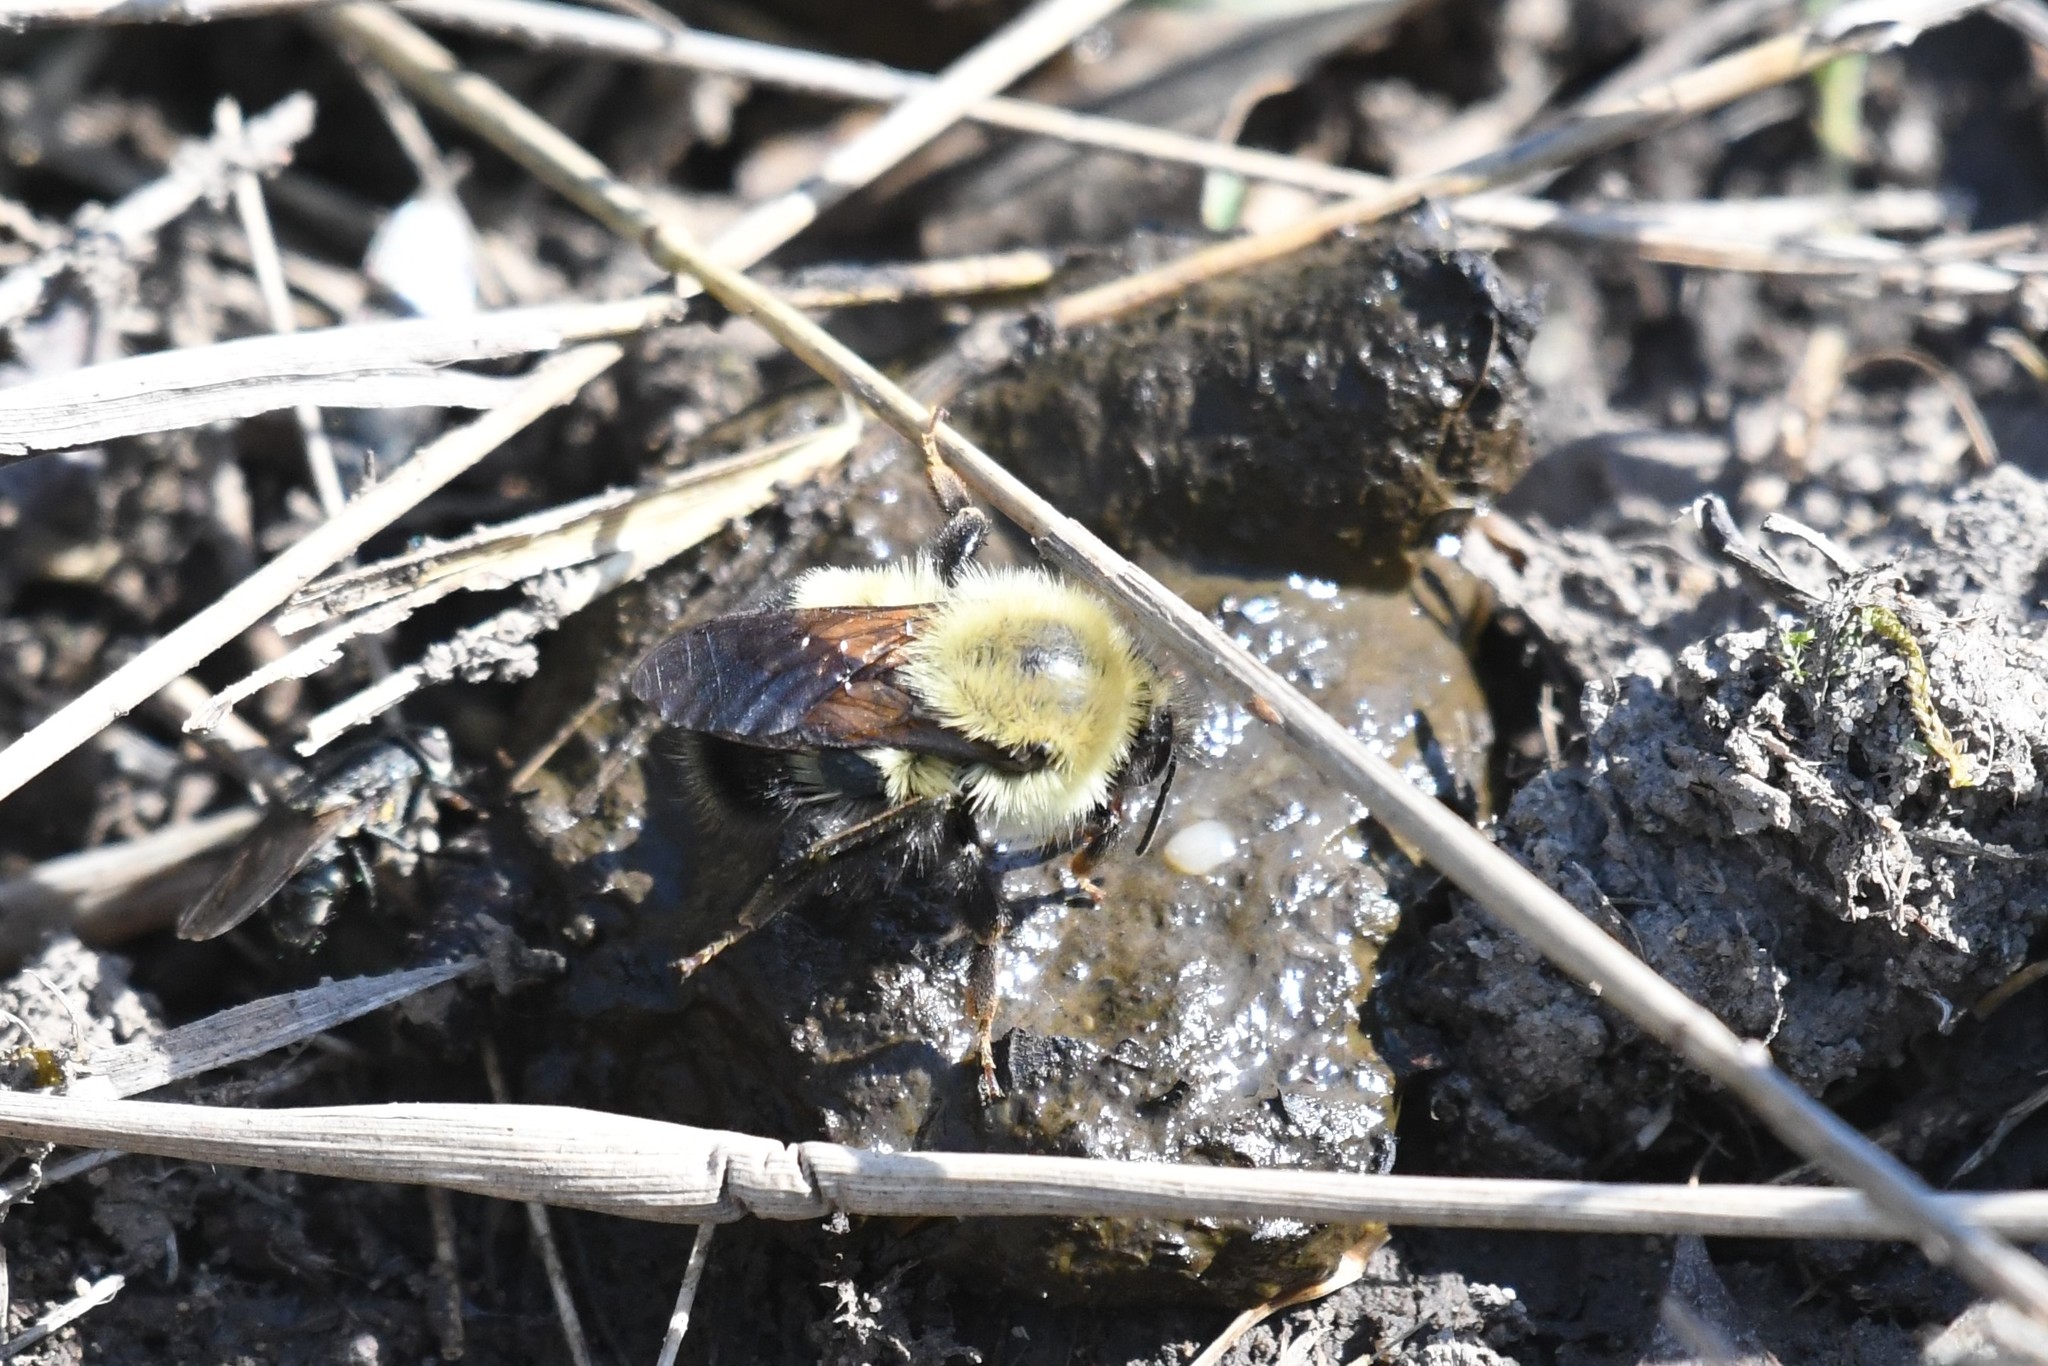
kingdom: Animalia
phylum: Arthropoda
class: Insecta
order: Hymenoptera
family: Apidae
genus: Bombus
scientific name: Bombus perplexus
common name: Confusing bumble bee
